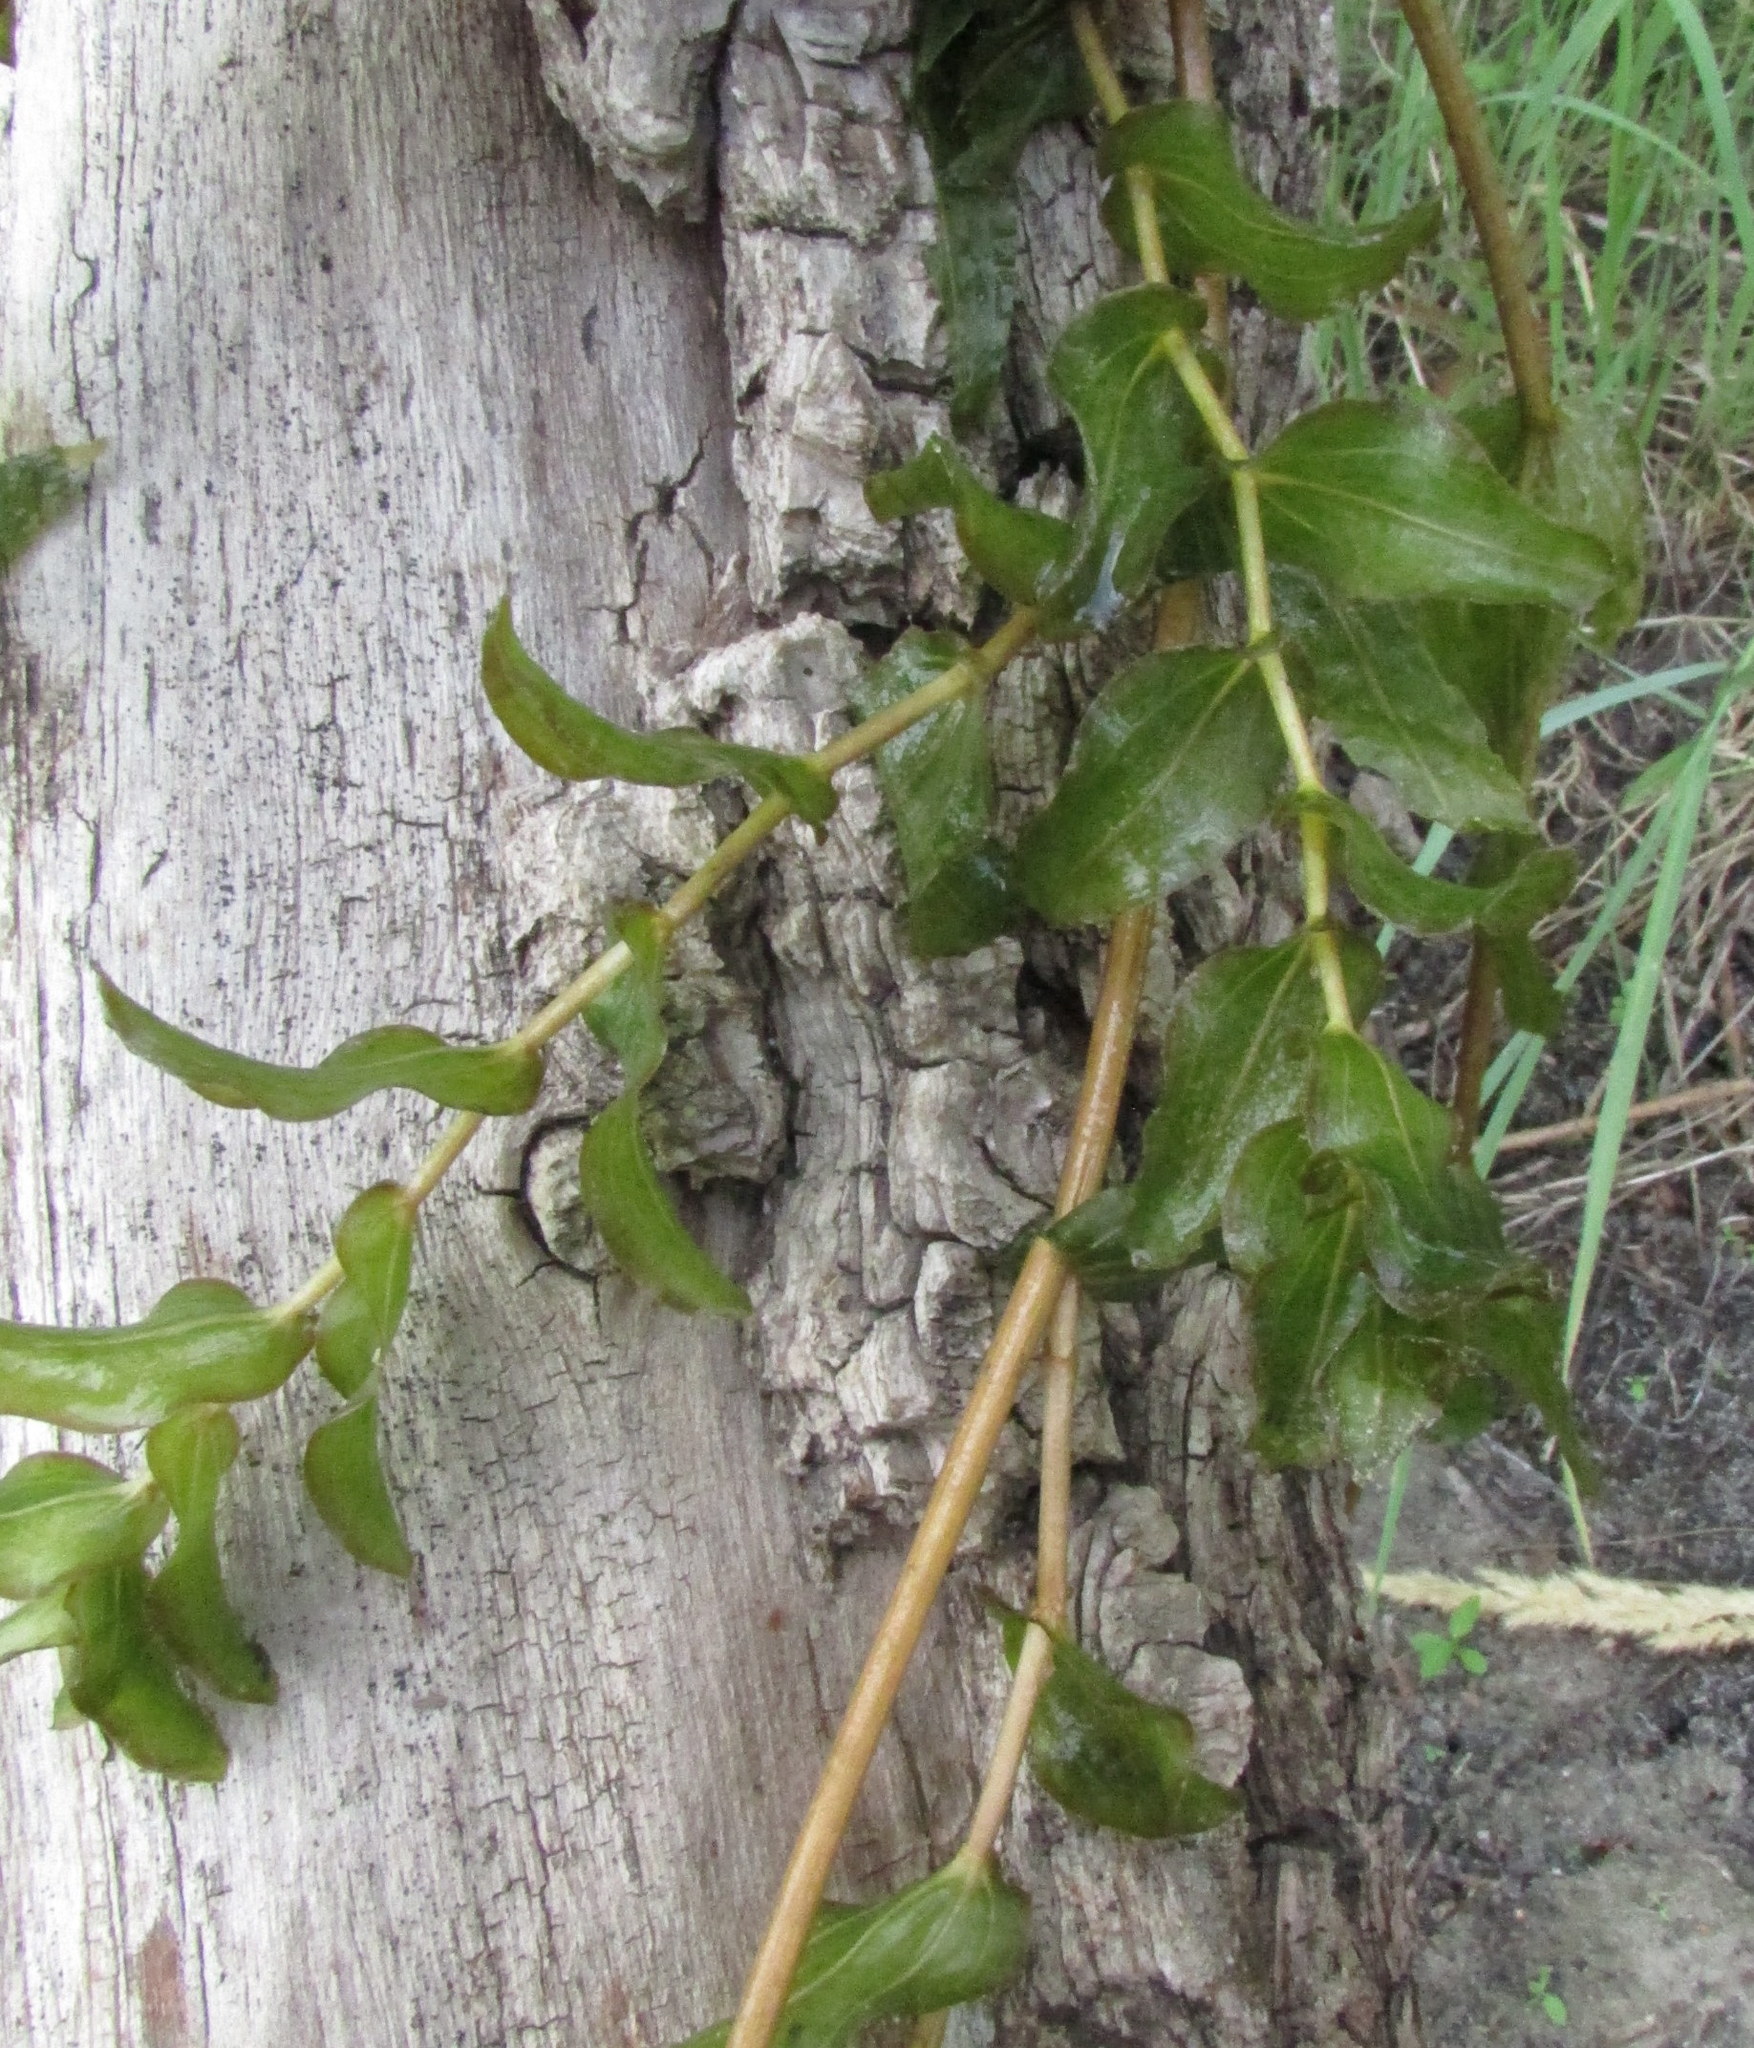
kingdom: Plantae
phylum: Tracheophyta
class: Liliopsida
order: Alismatales
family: Potamogetonaceae
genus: Potamogeton
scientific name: Potamogeton perfoliatus
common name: Perfoliate pondweed
